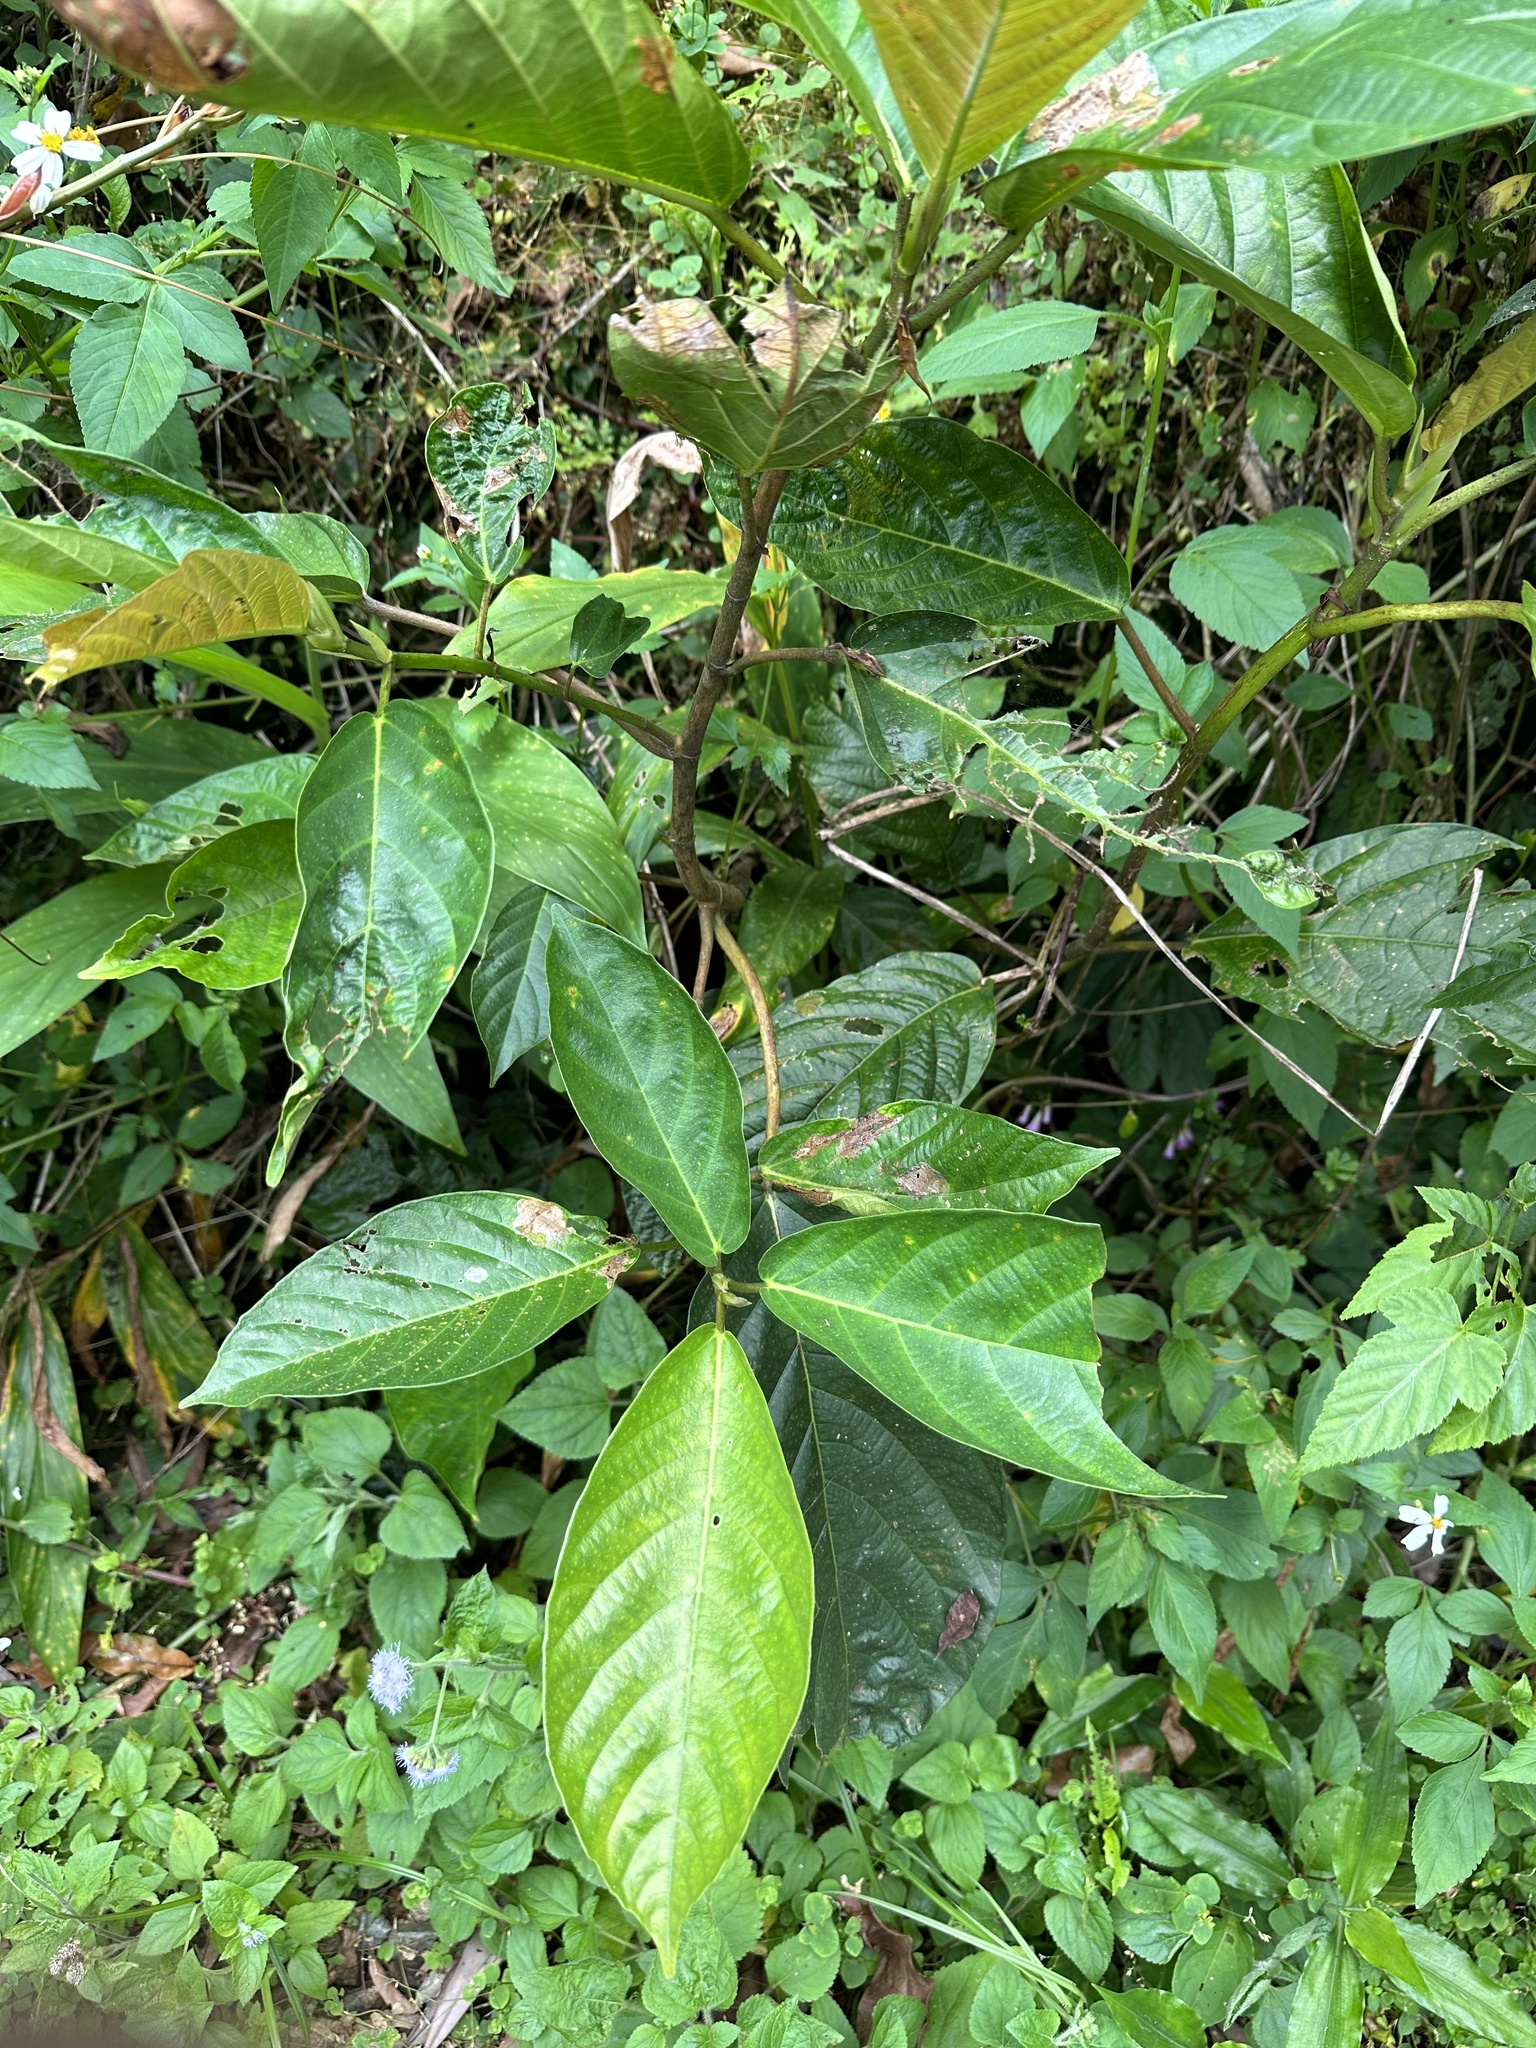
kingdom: Plantae
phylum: Tracheophyta
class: Magnoliopsida
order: Rosales
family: Moraceae
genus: Ficus
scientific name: Ficus benguetensis
